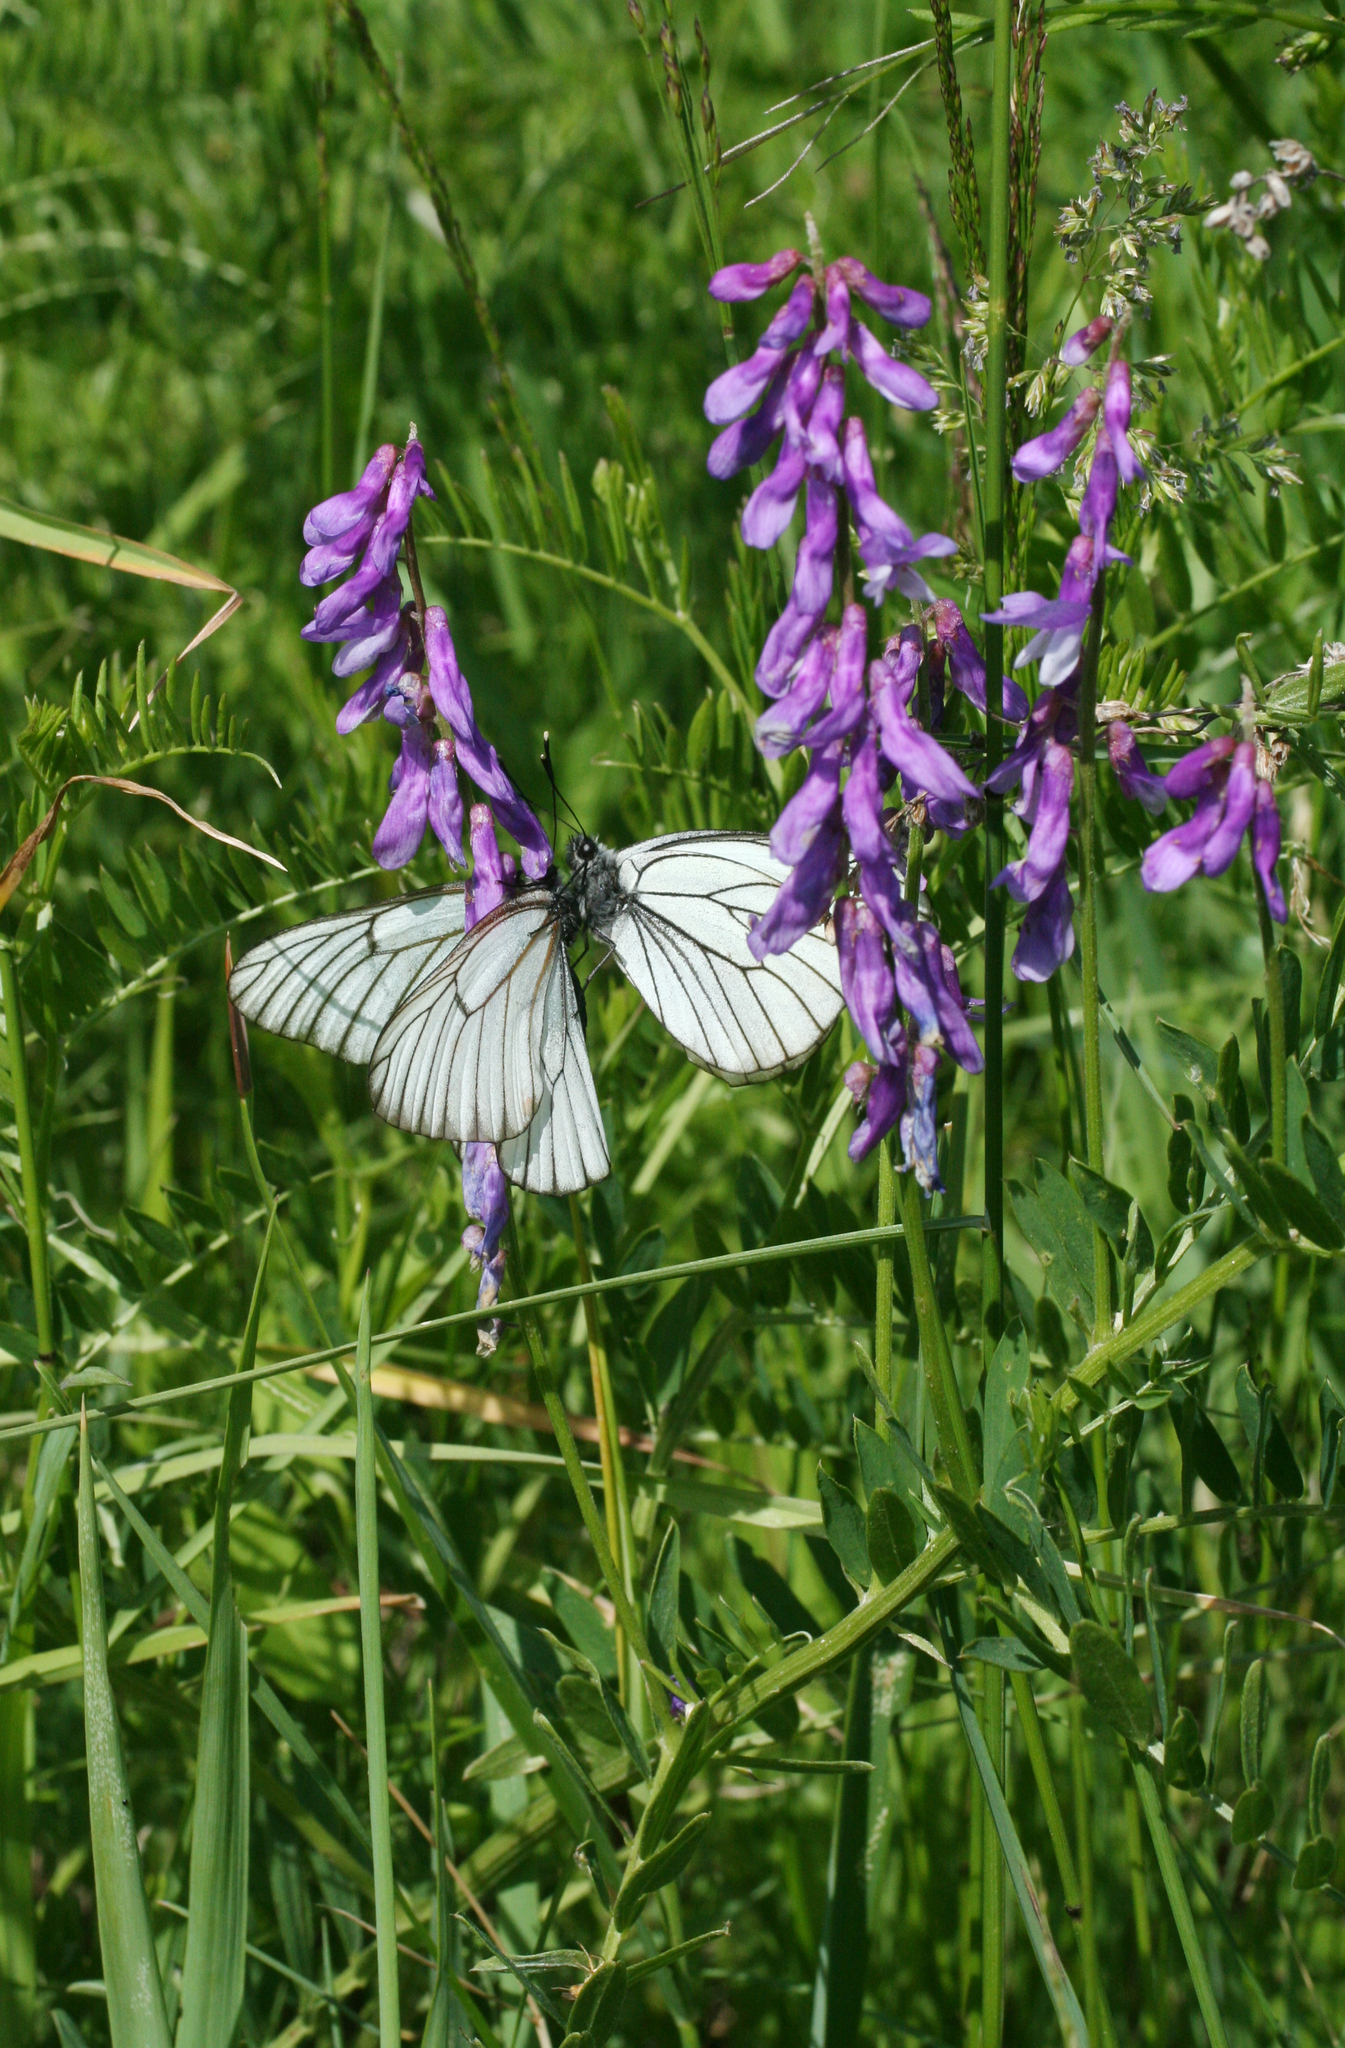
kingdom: Plantae
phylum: Tracheophyta
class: Magnoliopsida
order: Fabales
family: Fabaceae
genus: Vicia
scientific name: Vicia tenuifolia
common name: Fine-leaved vetch
